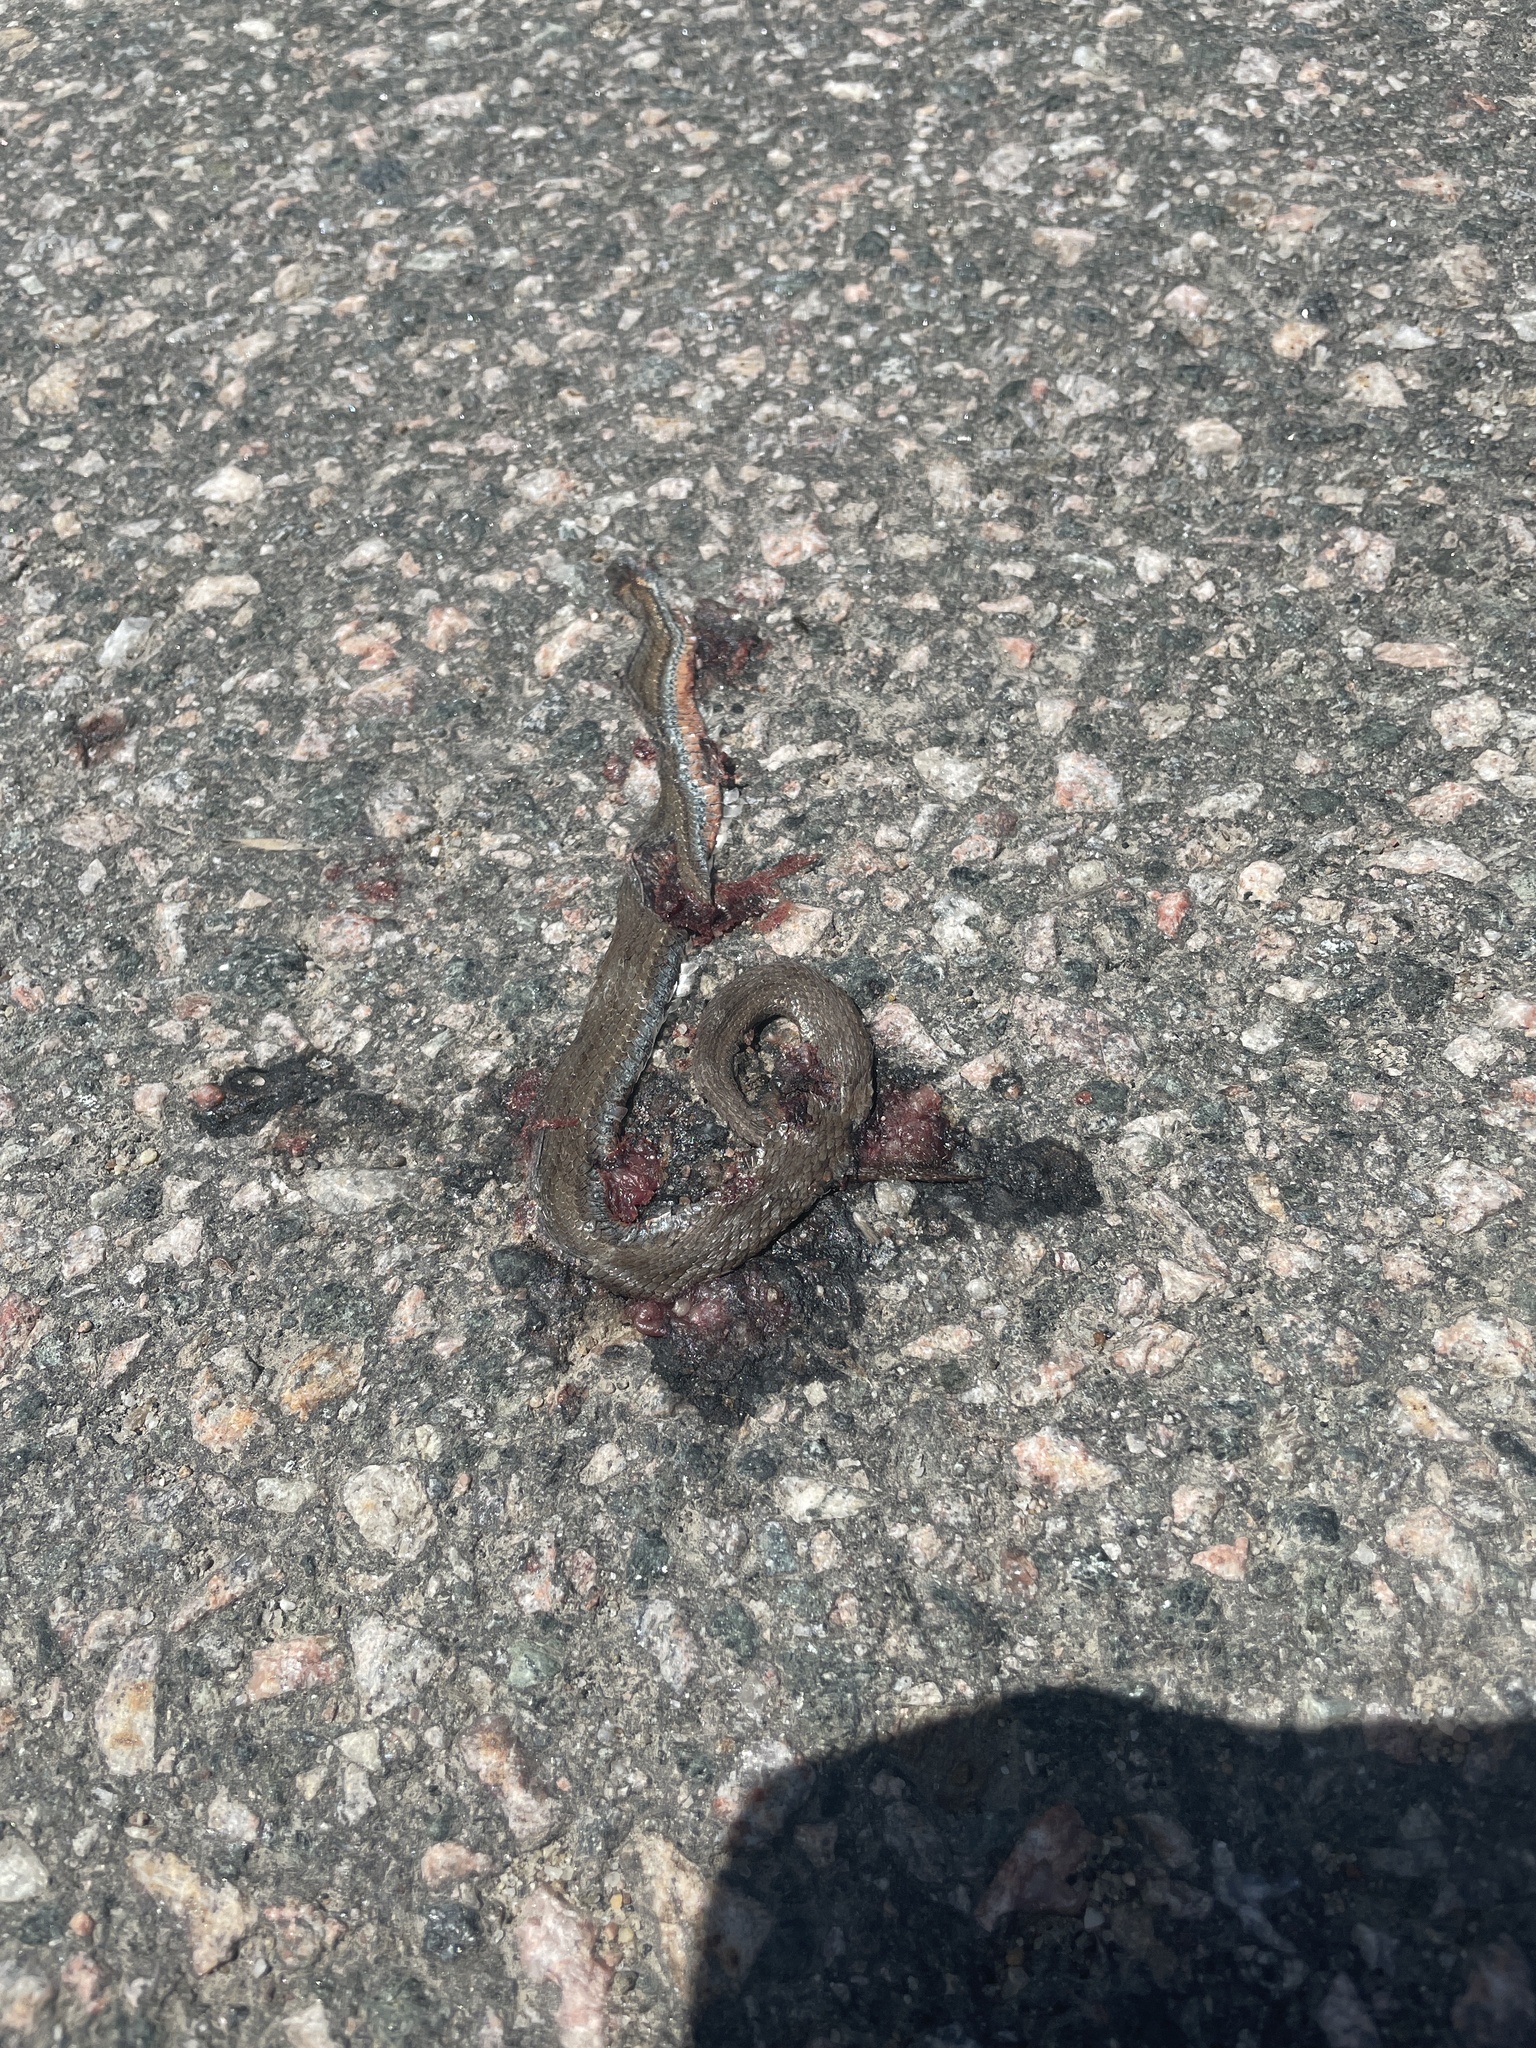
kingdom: Animalia
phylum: Chordata
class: Squamata
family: Colubridae
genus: Storeria
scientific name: Storeria occipitomaculata
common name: Redbelly snake
